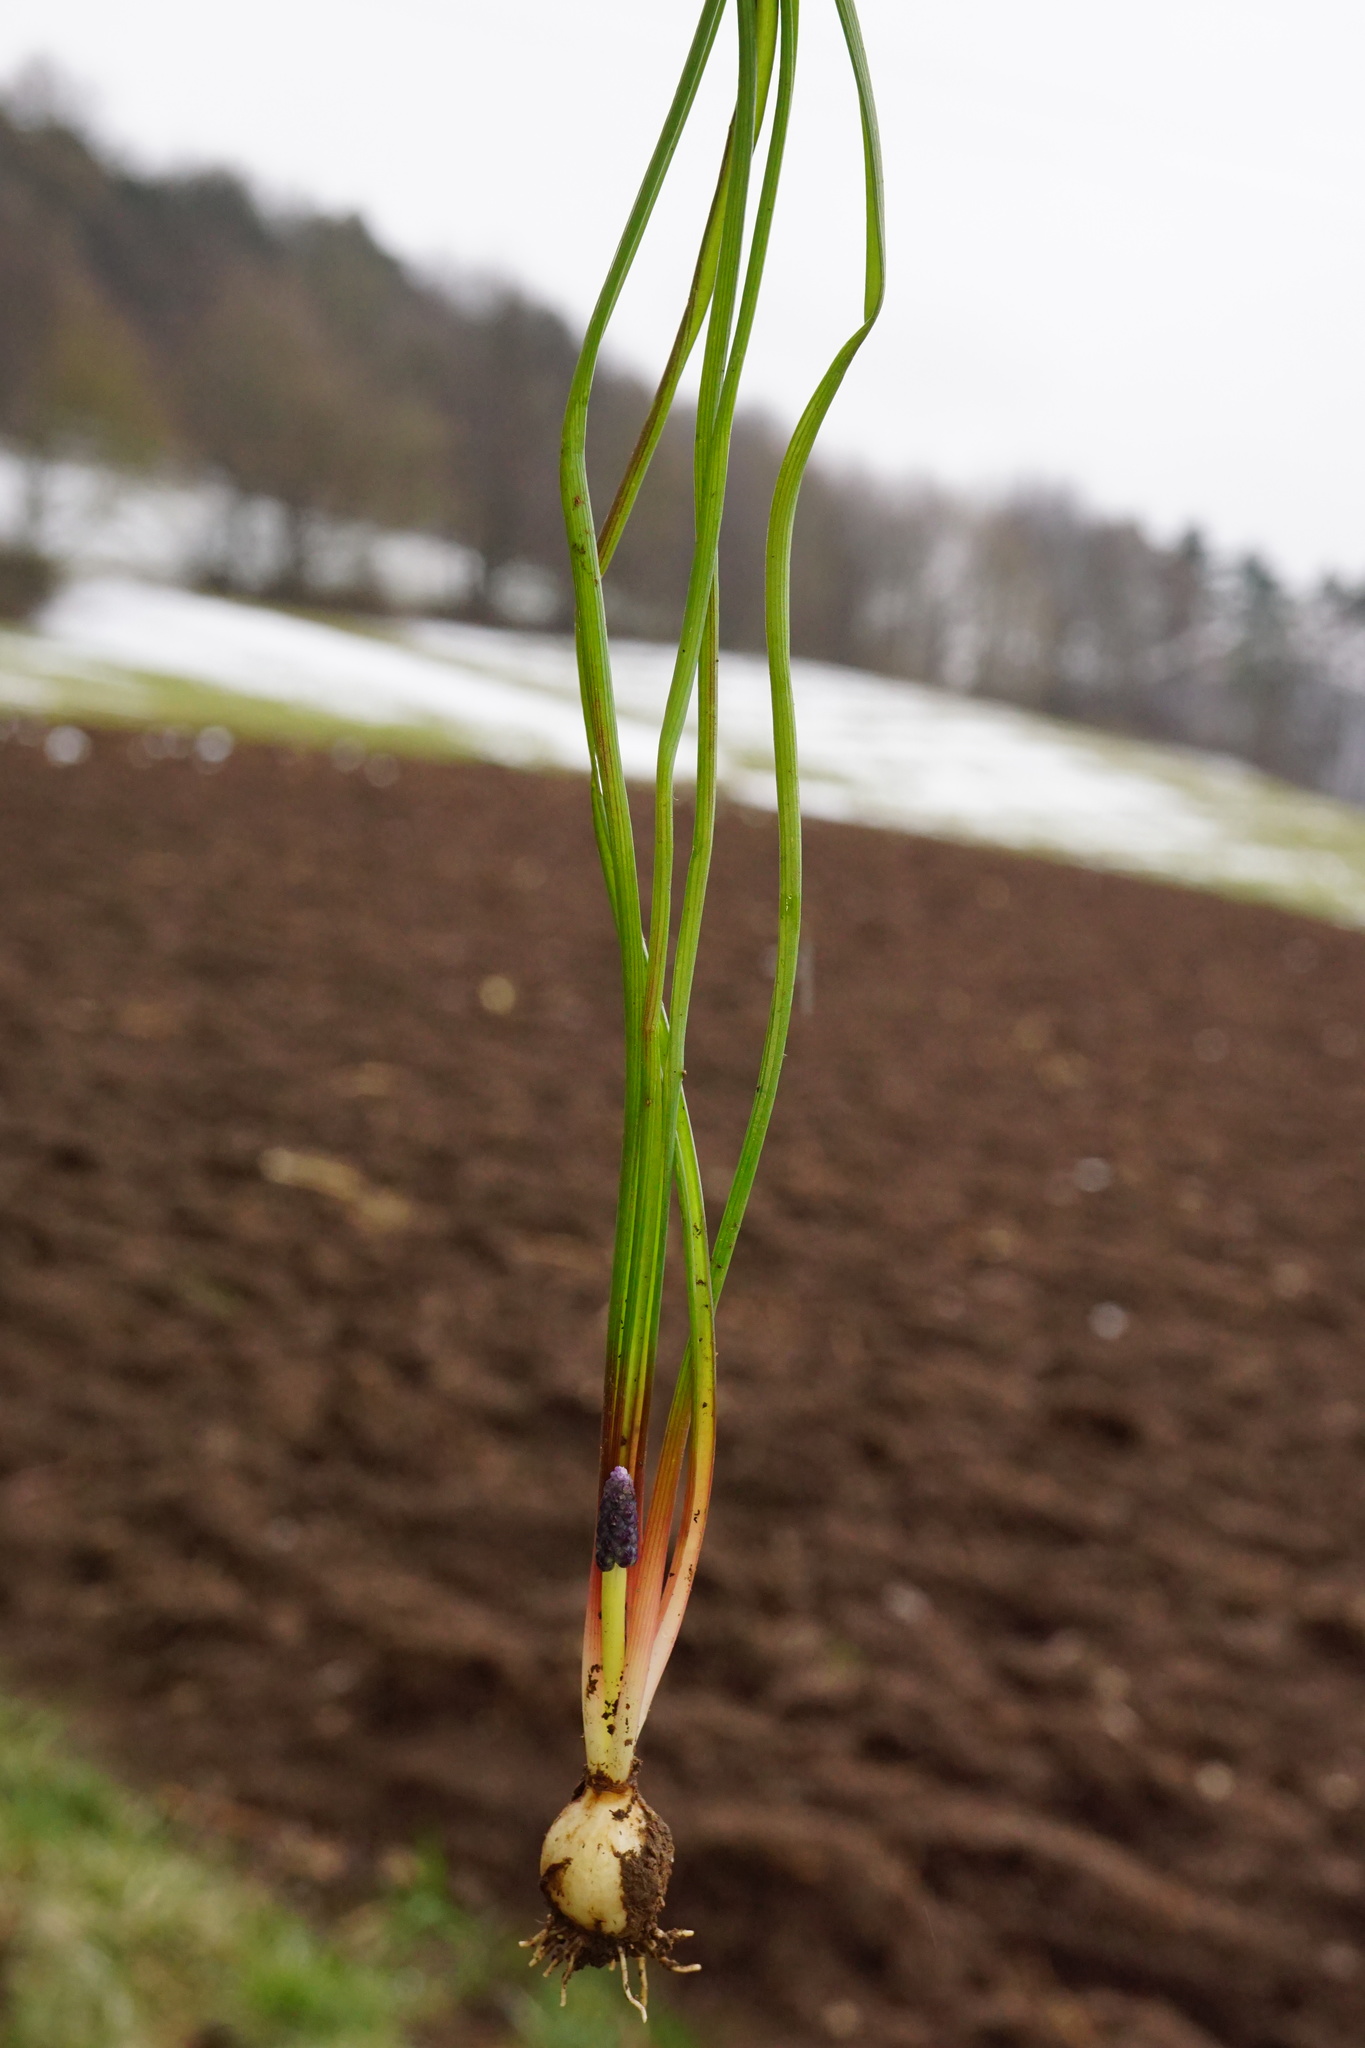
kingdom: Plantae
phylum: Tracheophyta
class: Liliopsida
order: Asparagales
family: Asparagaceae
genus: Muscari
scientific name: Muscari neglectum
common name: Grape-hyacinth
